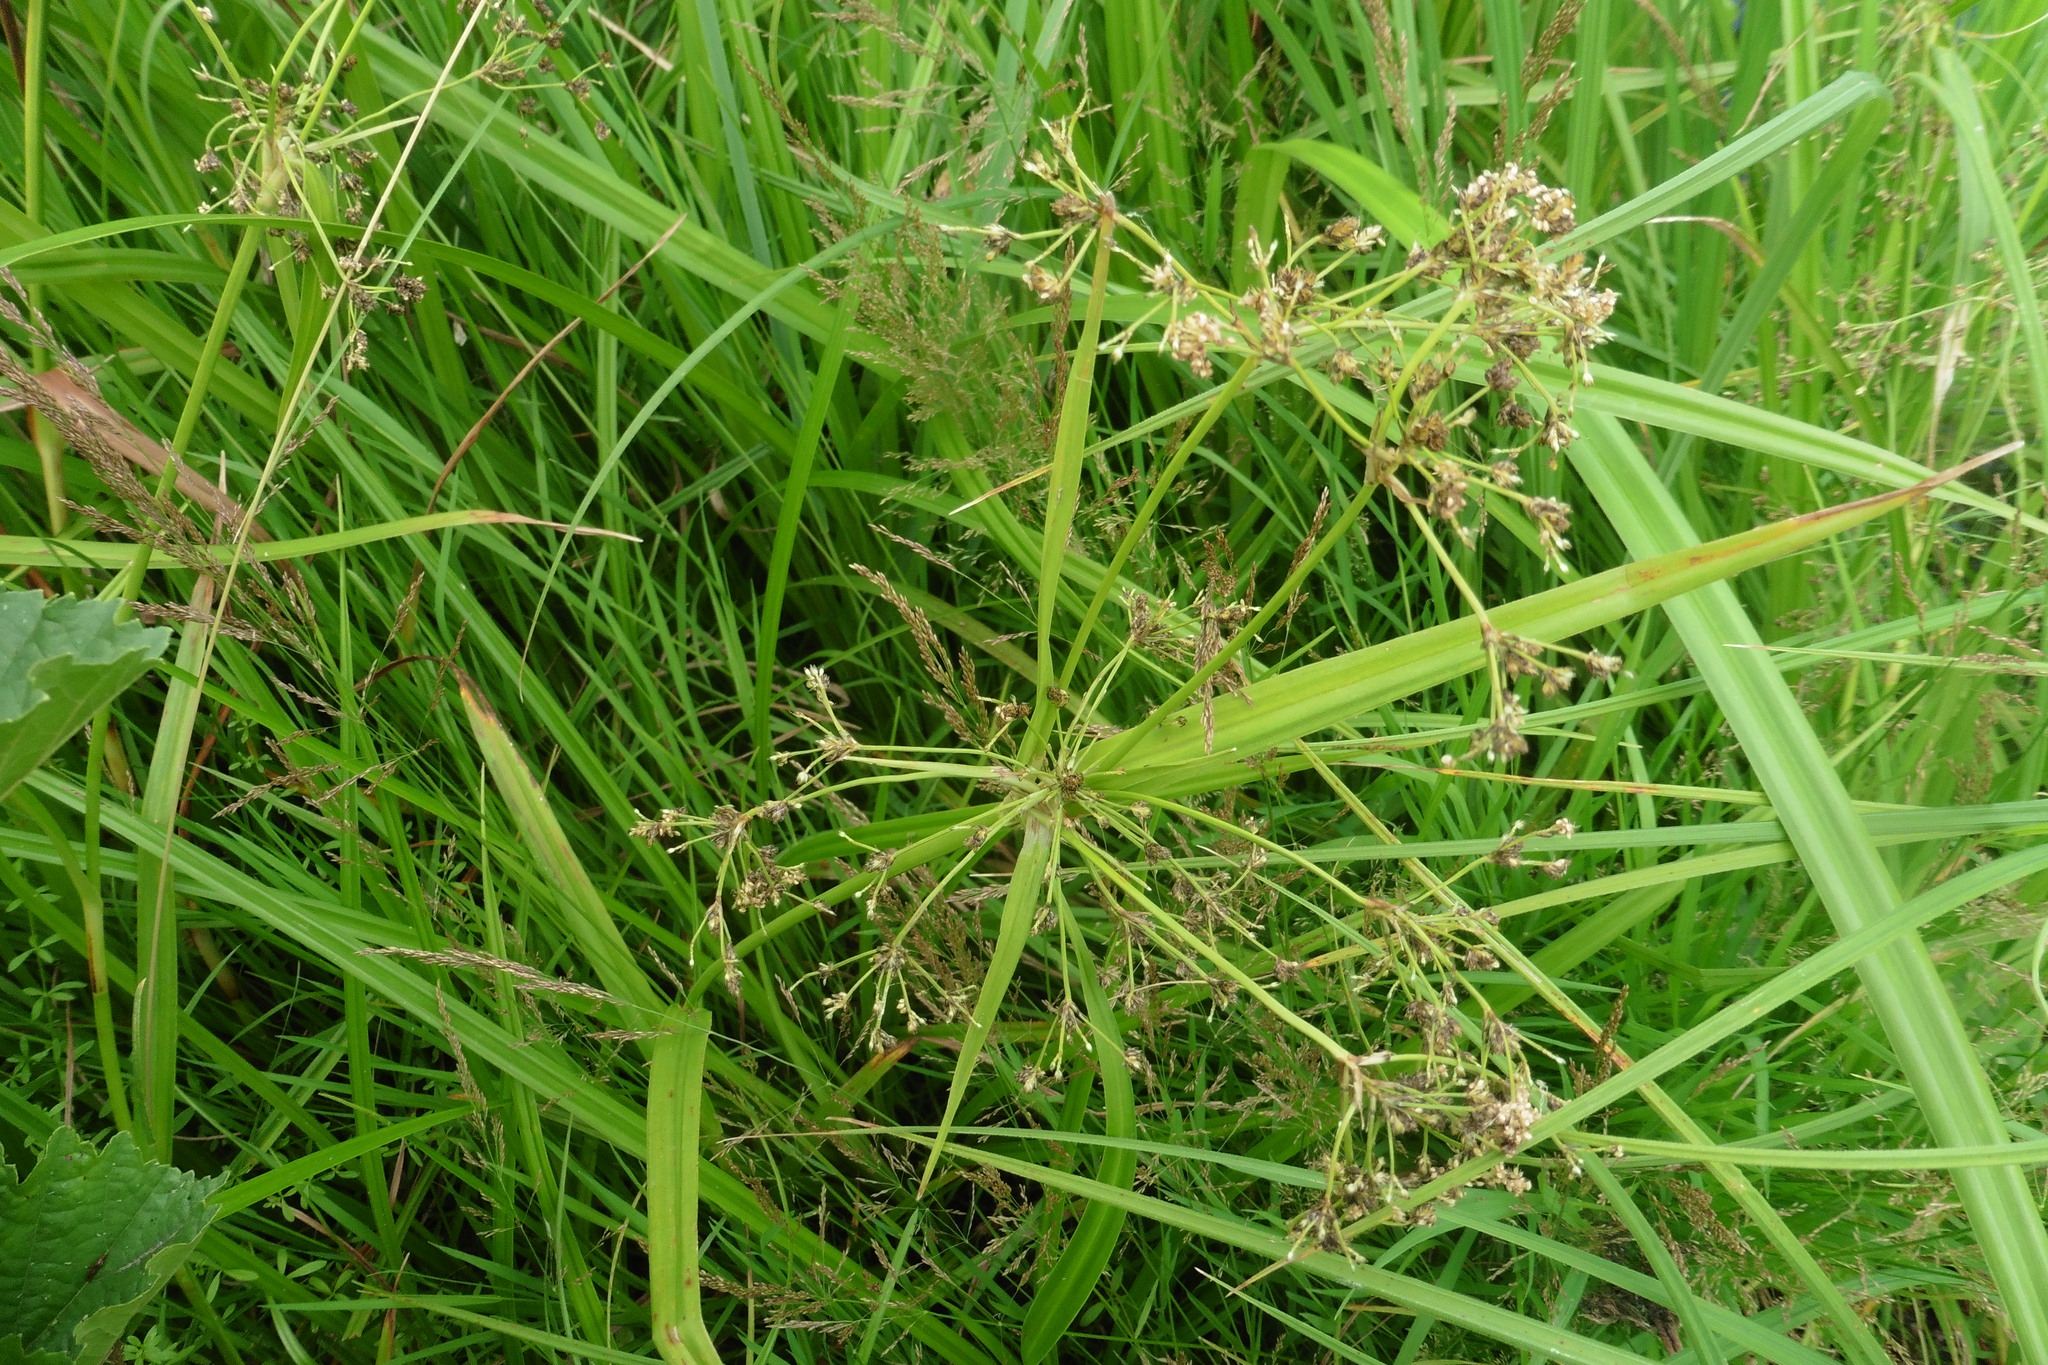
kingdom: Plantae
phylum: Tracheophyta
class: Liliopsida
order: Poales
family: Cyperaceae
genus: Scirpus
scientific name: Scirpus sylvaticus
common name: Wood club-rush
